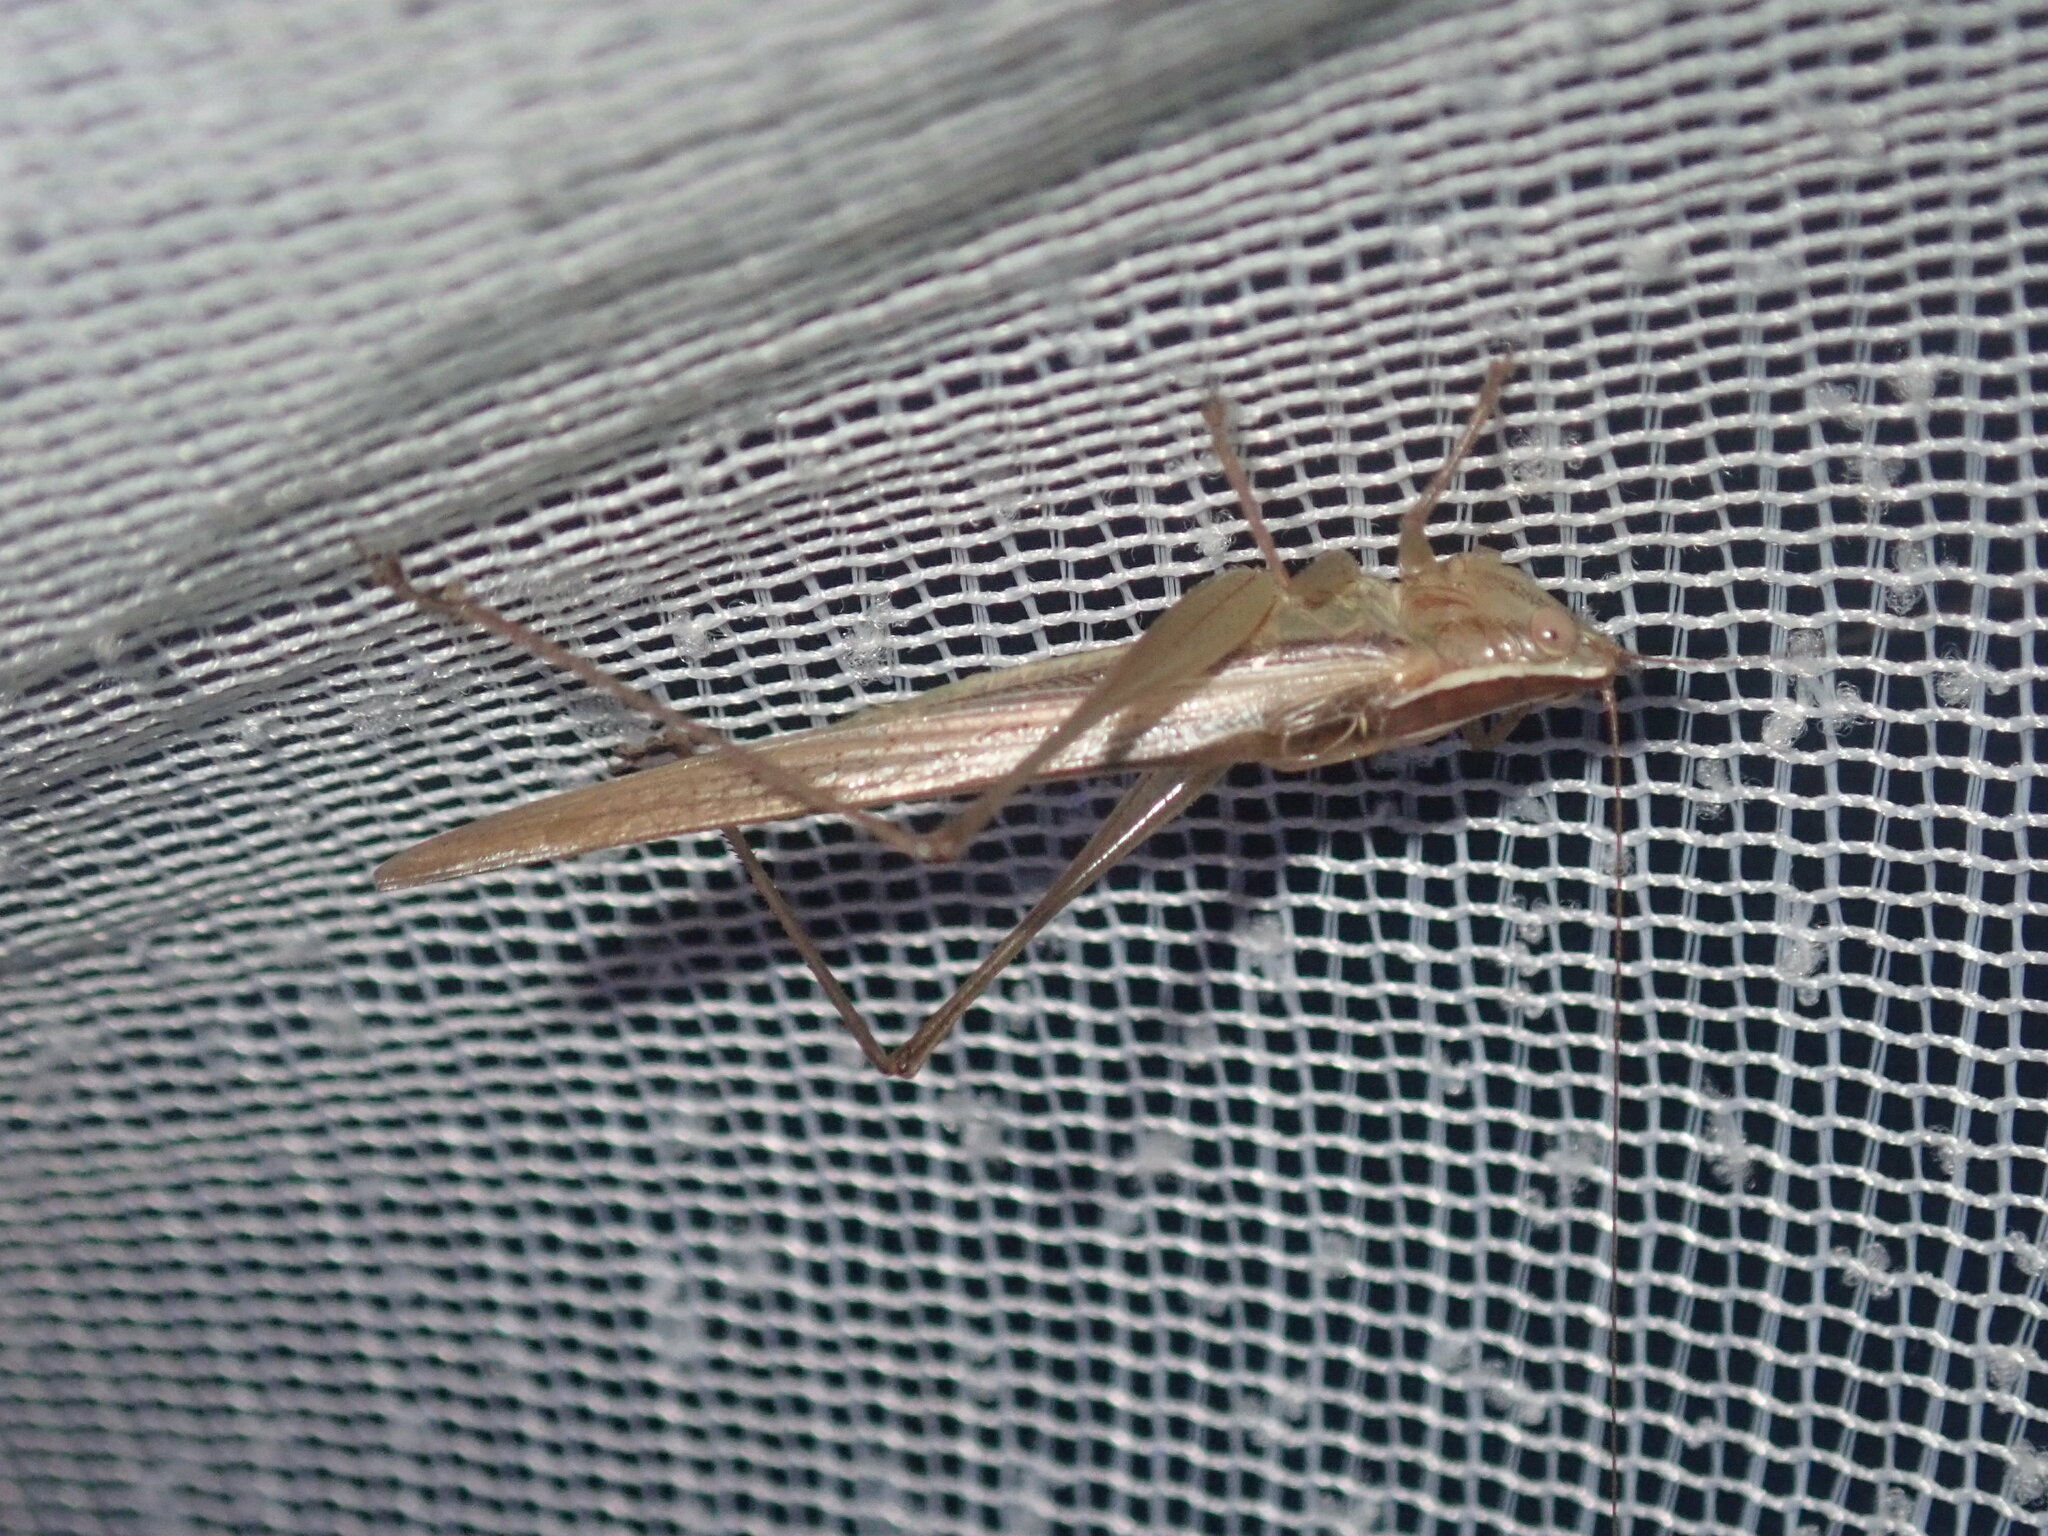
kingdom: Animalia
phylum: Arthropoda
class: Insecta
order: Orthoptera
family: Tettigoniidae
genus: Conocephalus
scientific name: Conocephalus upoluensis
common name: Upolu meadow katydid
